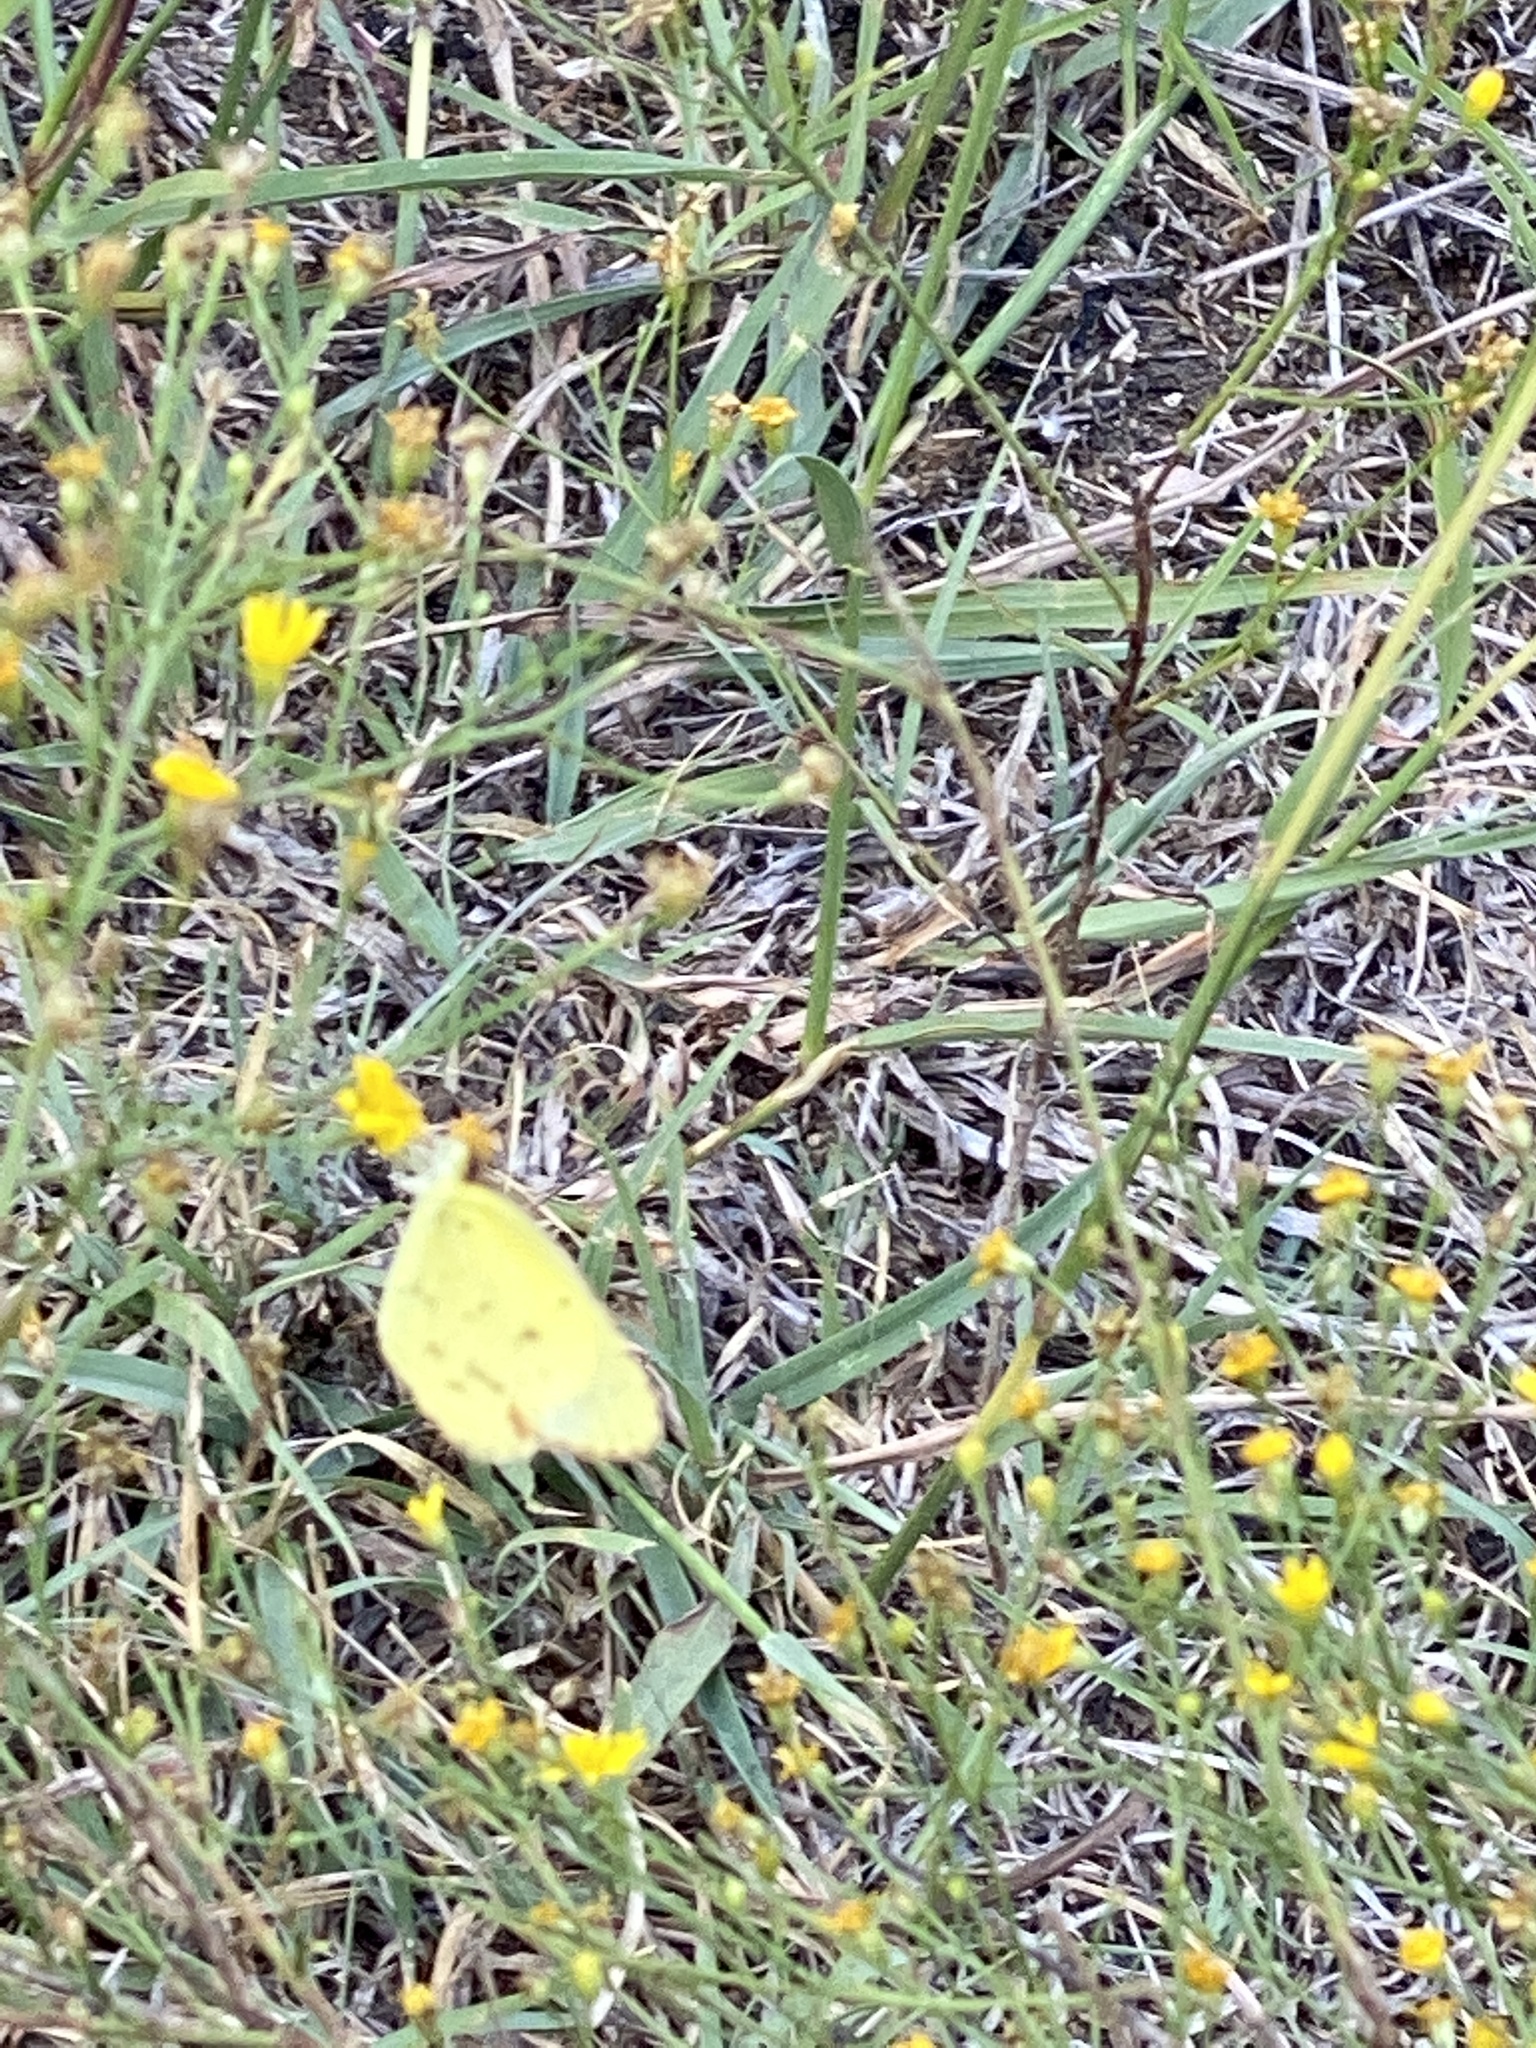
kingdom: Animalia
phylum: Arthropoda
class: Insecta
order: Lepidoptera
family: Pieridae
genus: Pyrisitia
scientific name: Pyrisitia lisa
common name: Little yellow
